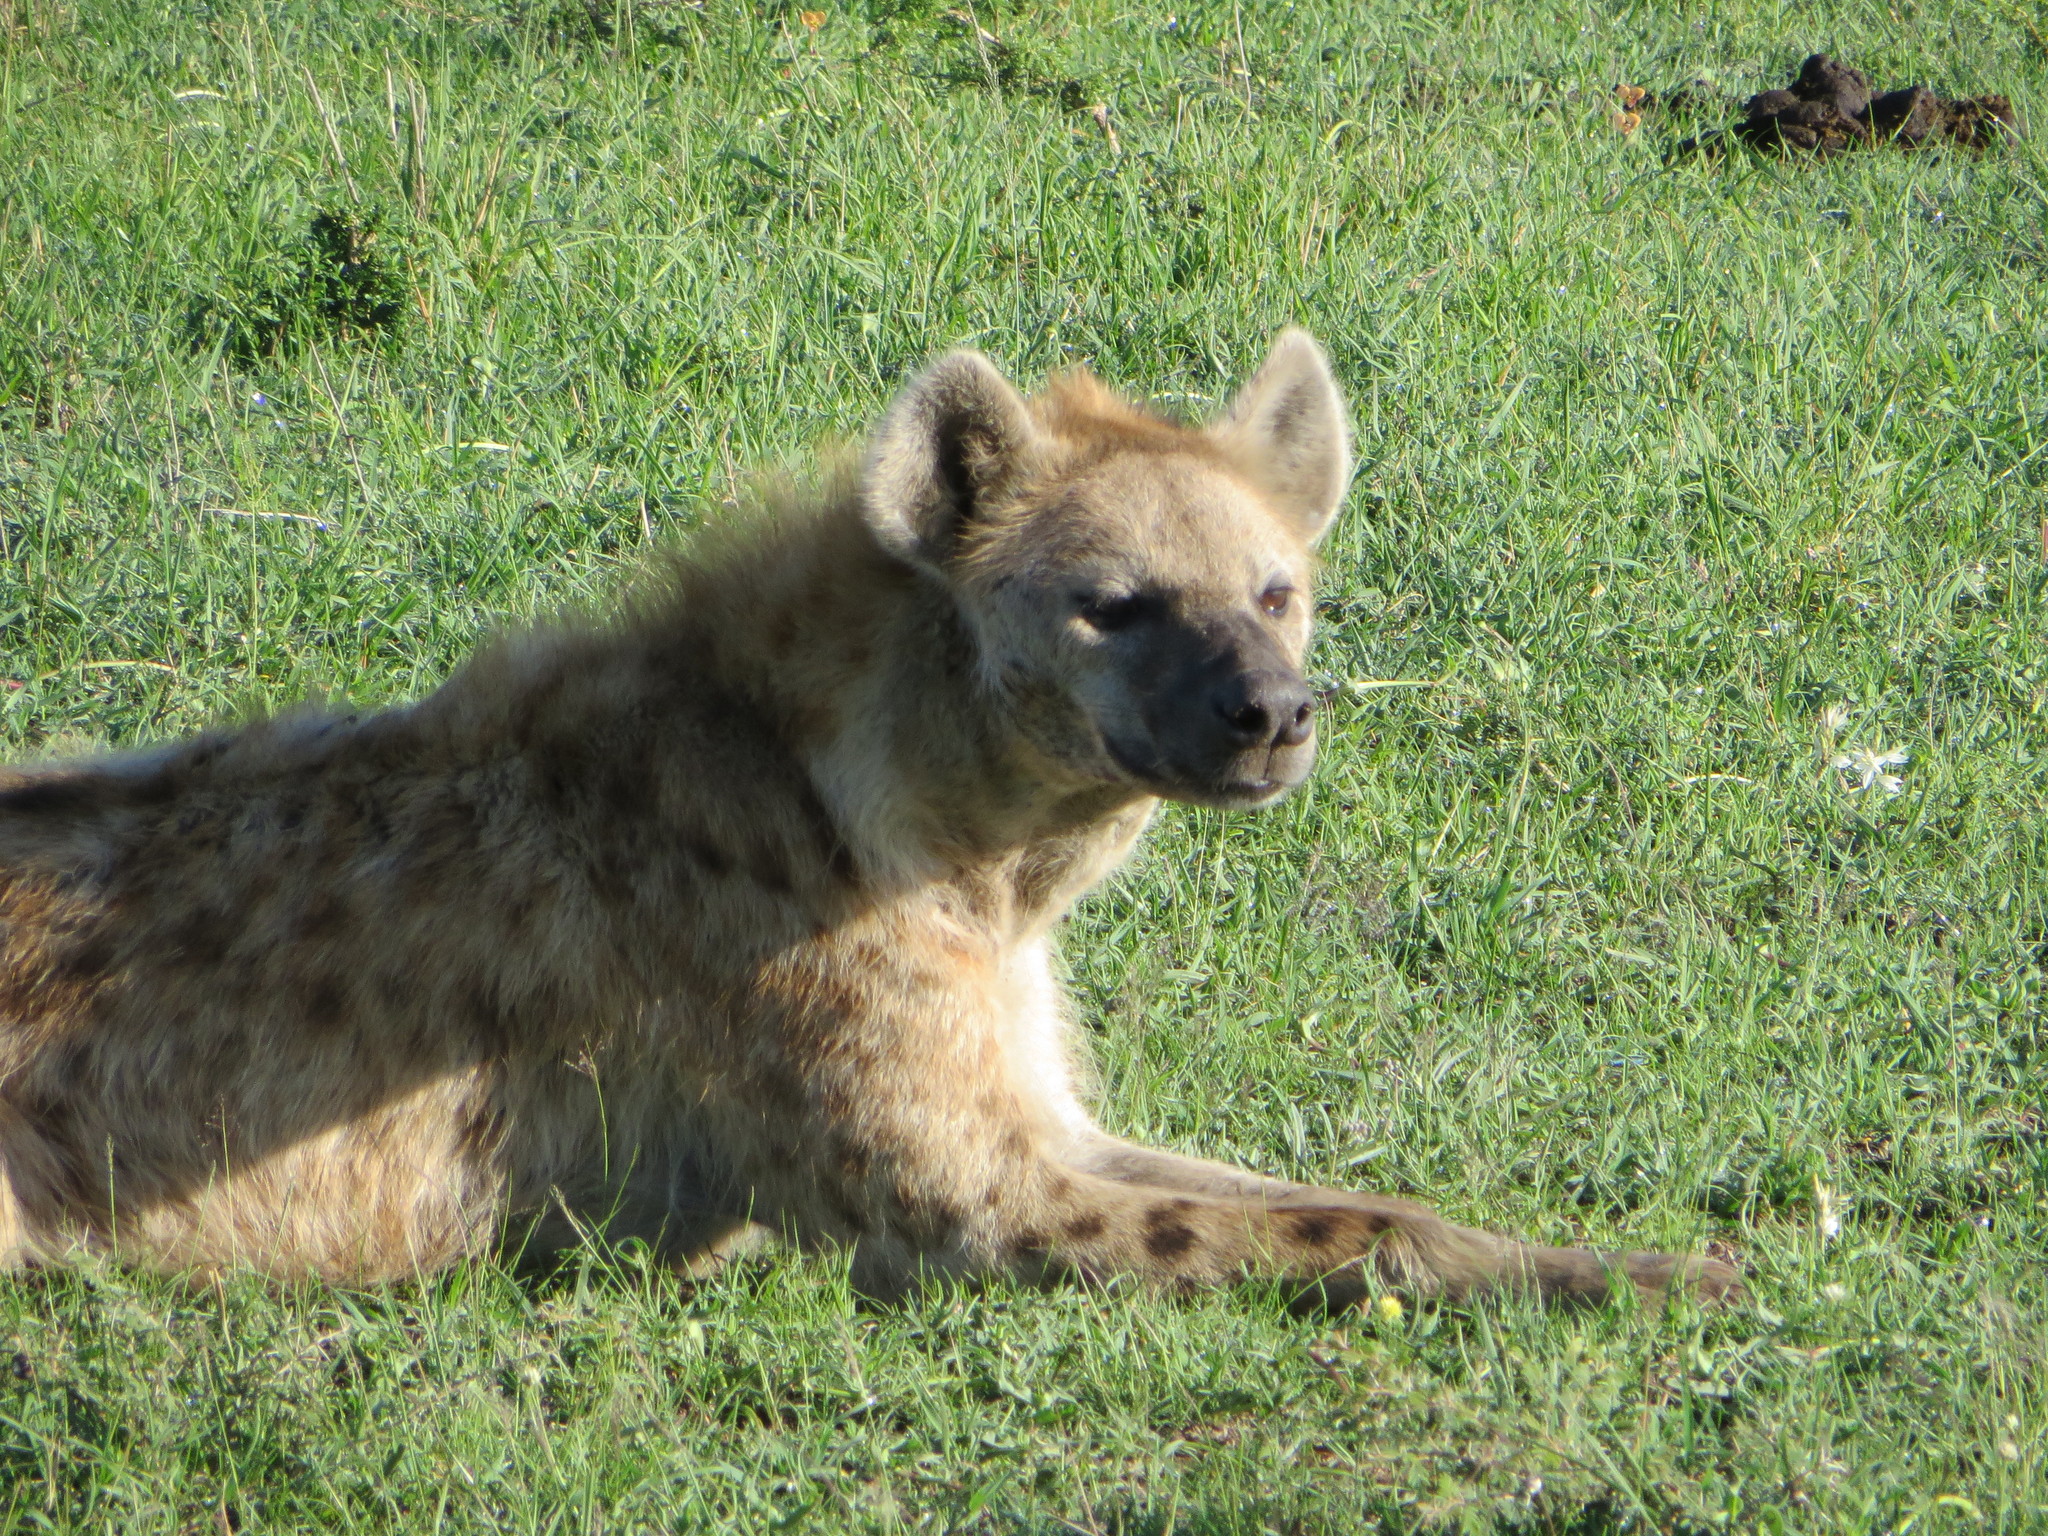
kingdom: Animalia
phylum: Chordata
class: Mammalia
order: Carnivora
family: Hyaenidae
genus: Crocuta
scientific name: Crocuta crocuta
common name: Spotted hyaena
